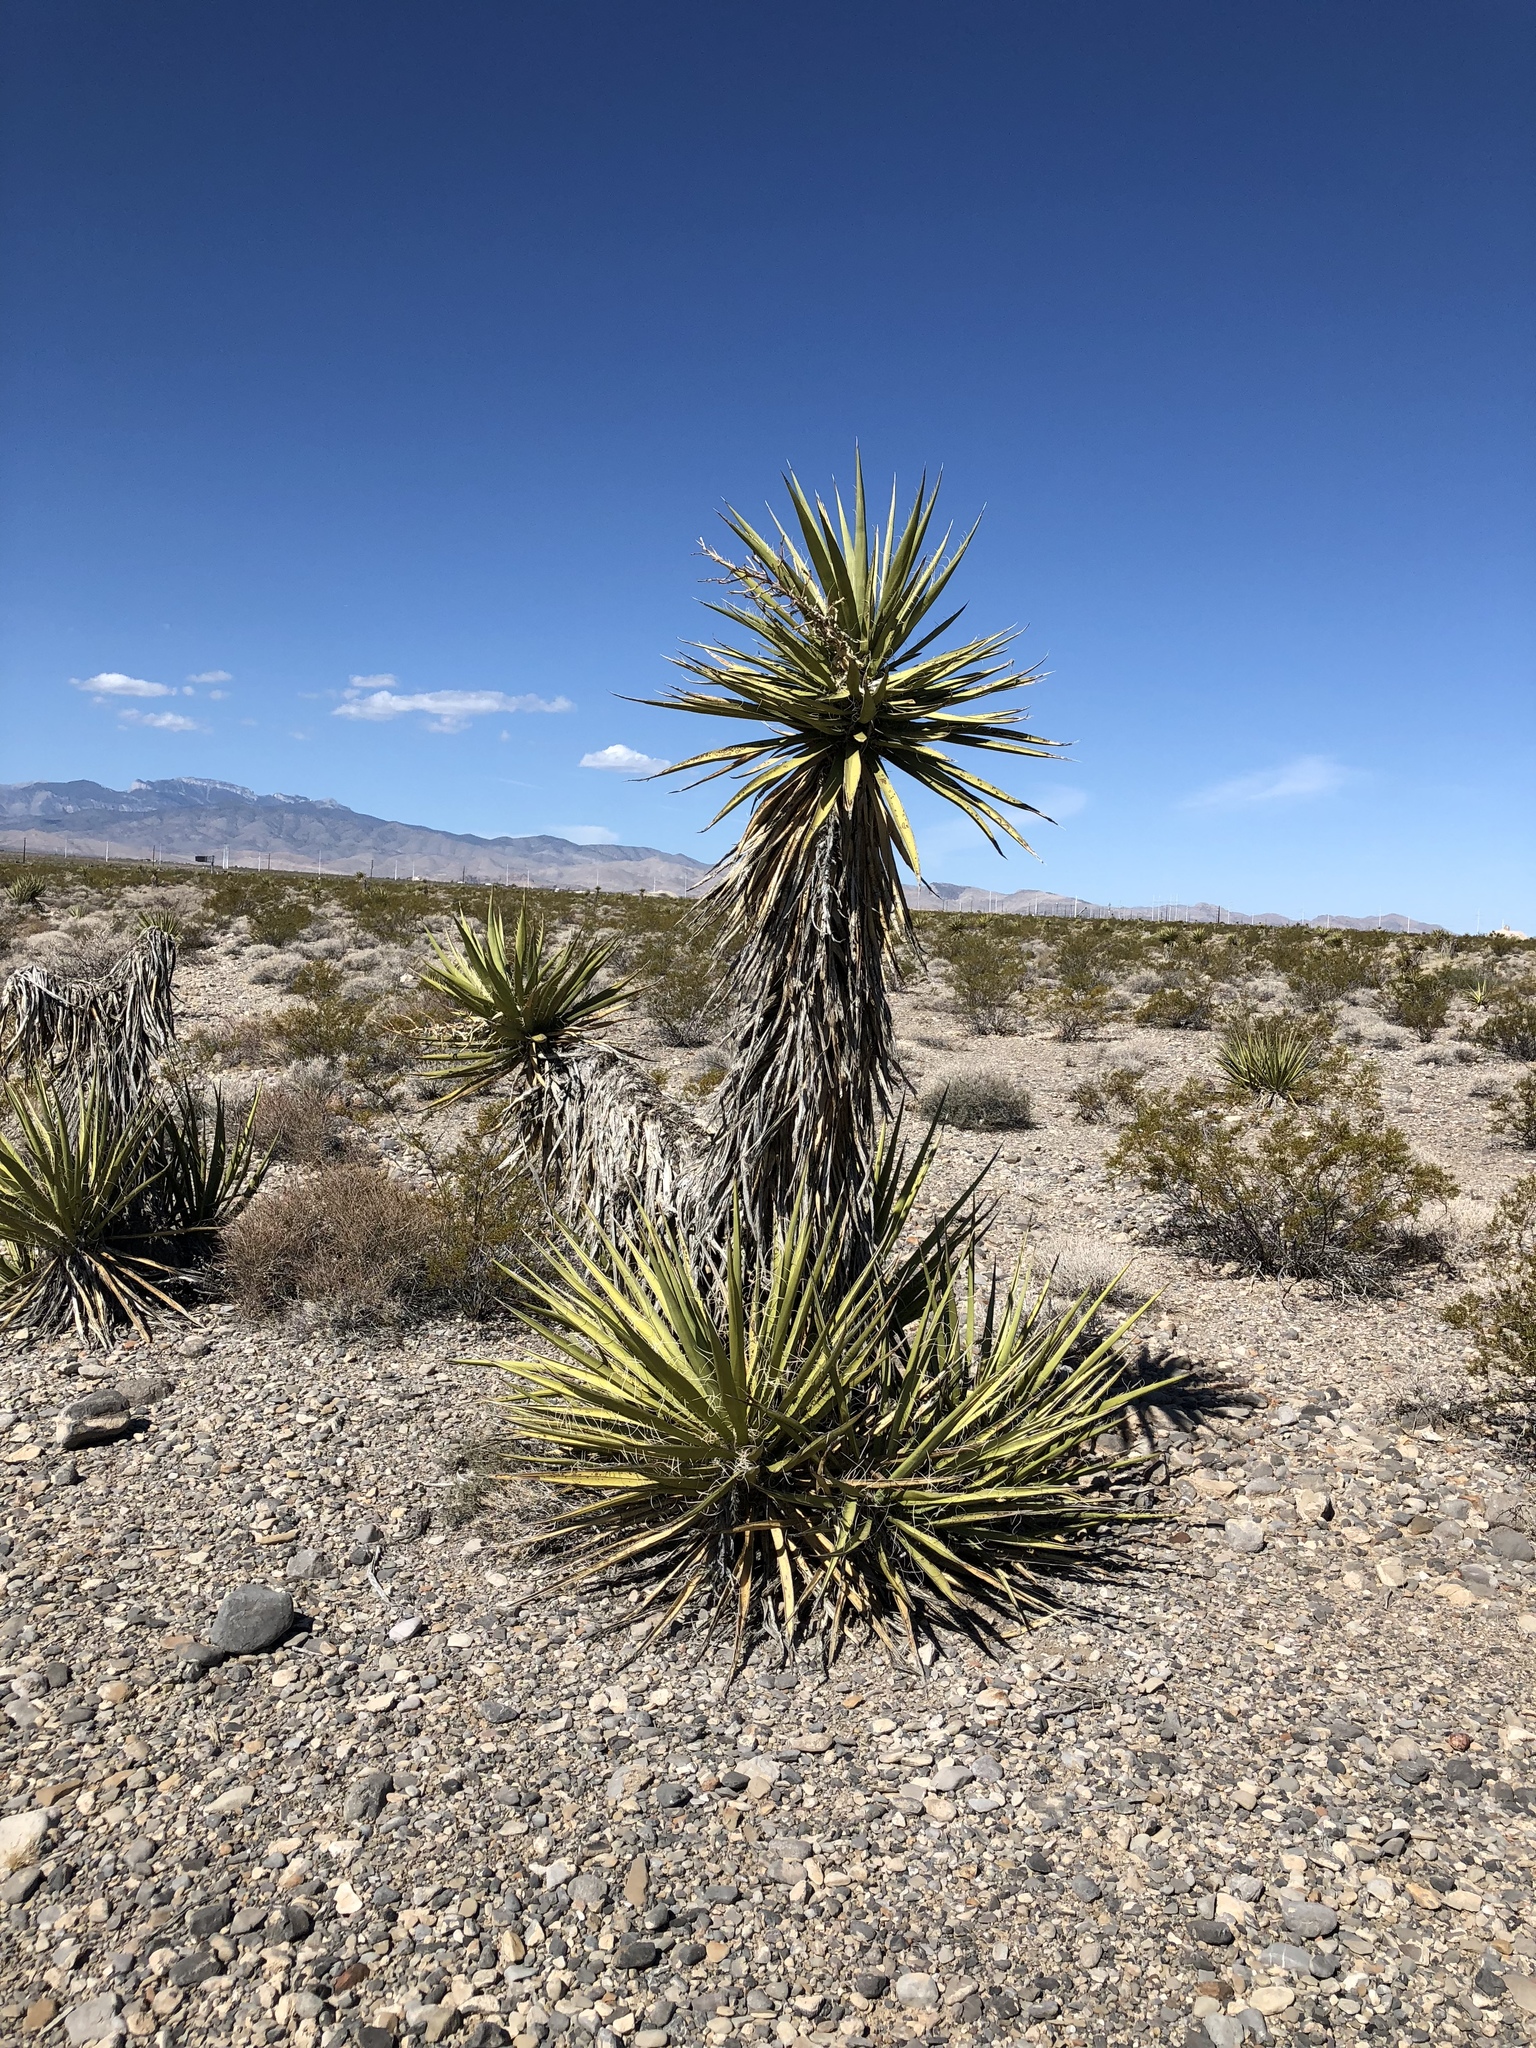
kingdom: Plantae
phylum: Tracheophyta
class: Liliopsida
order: Asparagales
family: Asparagaceae
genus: Yucca
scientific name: Yucca schidigera
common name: Mojave yucca
